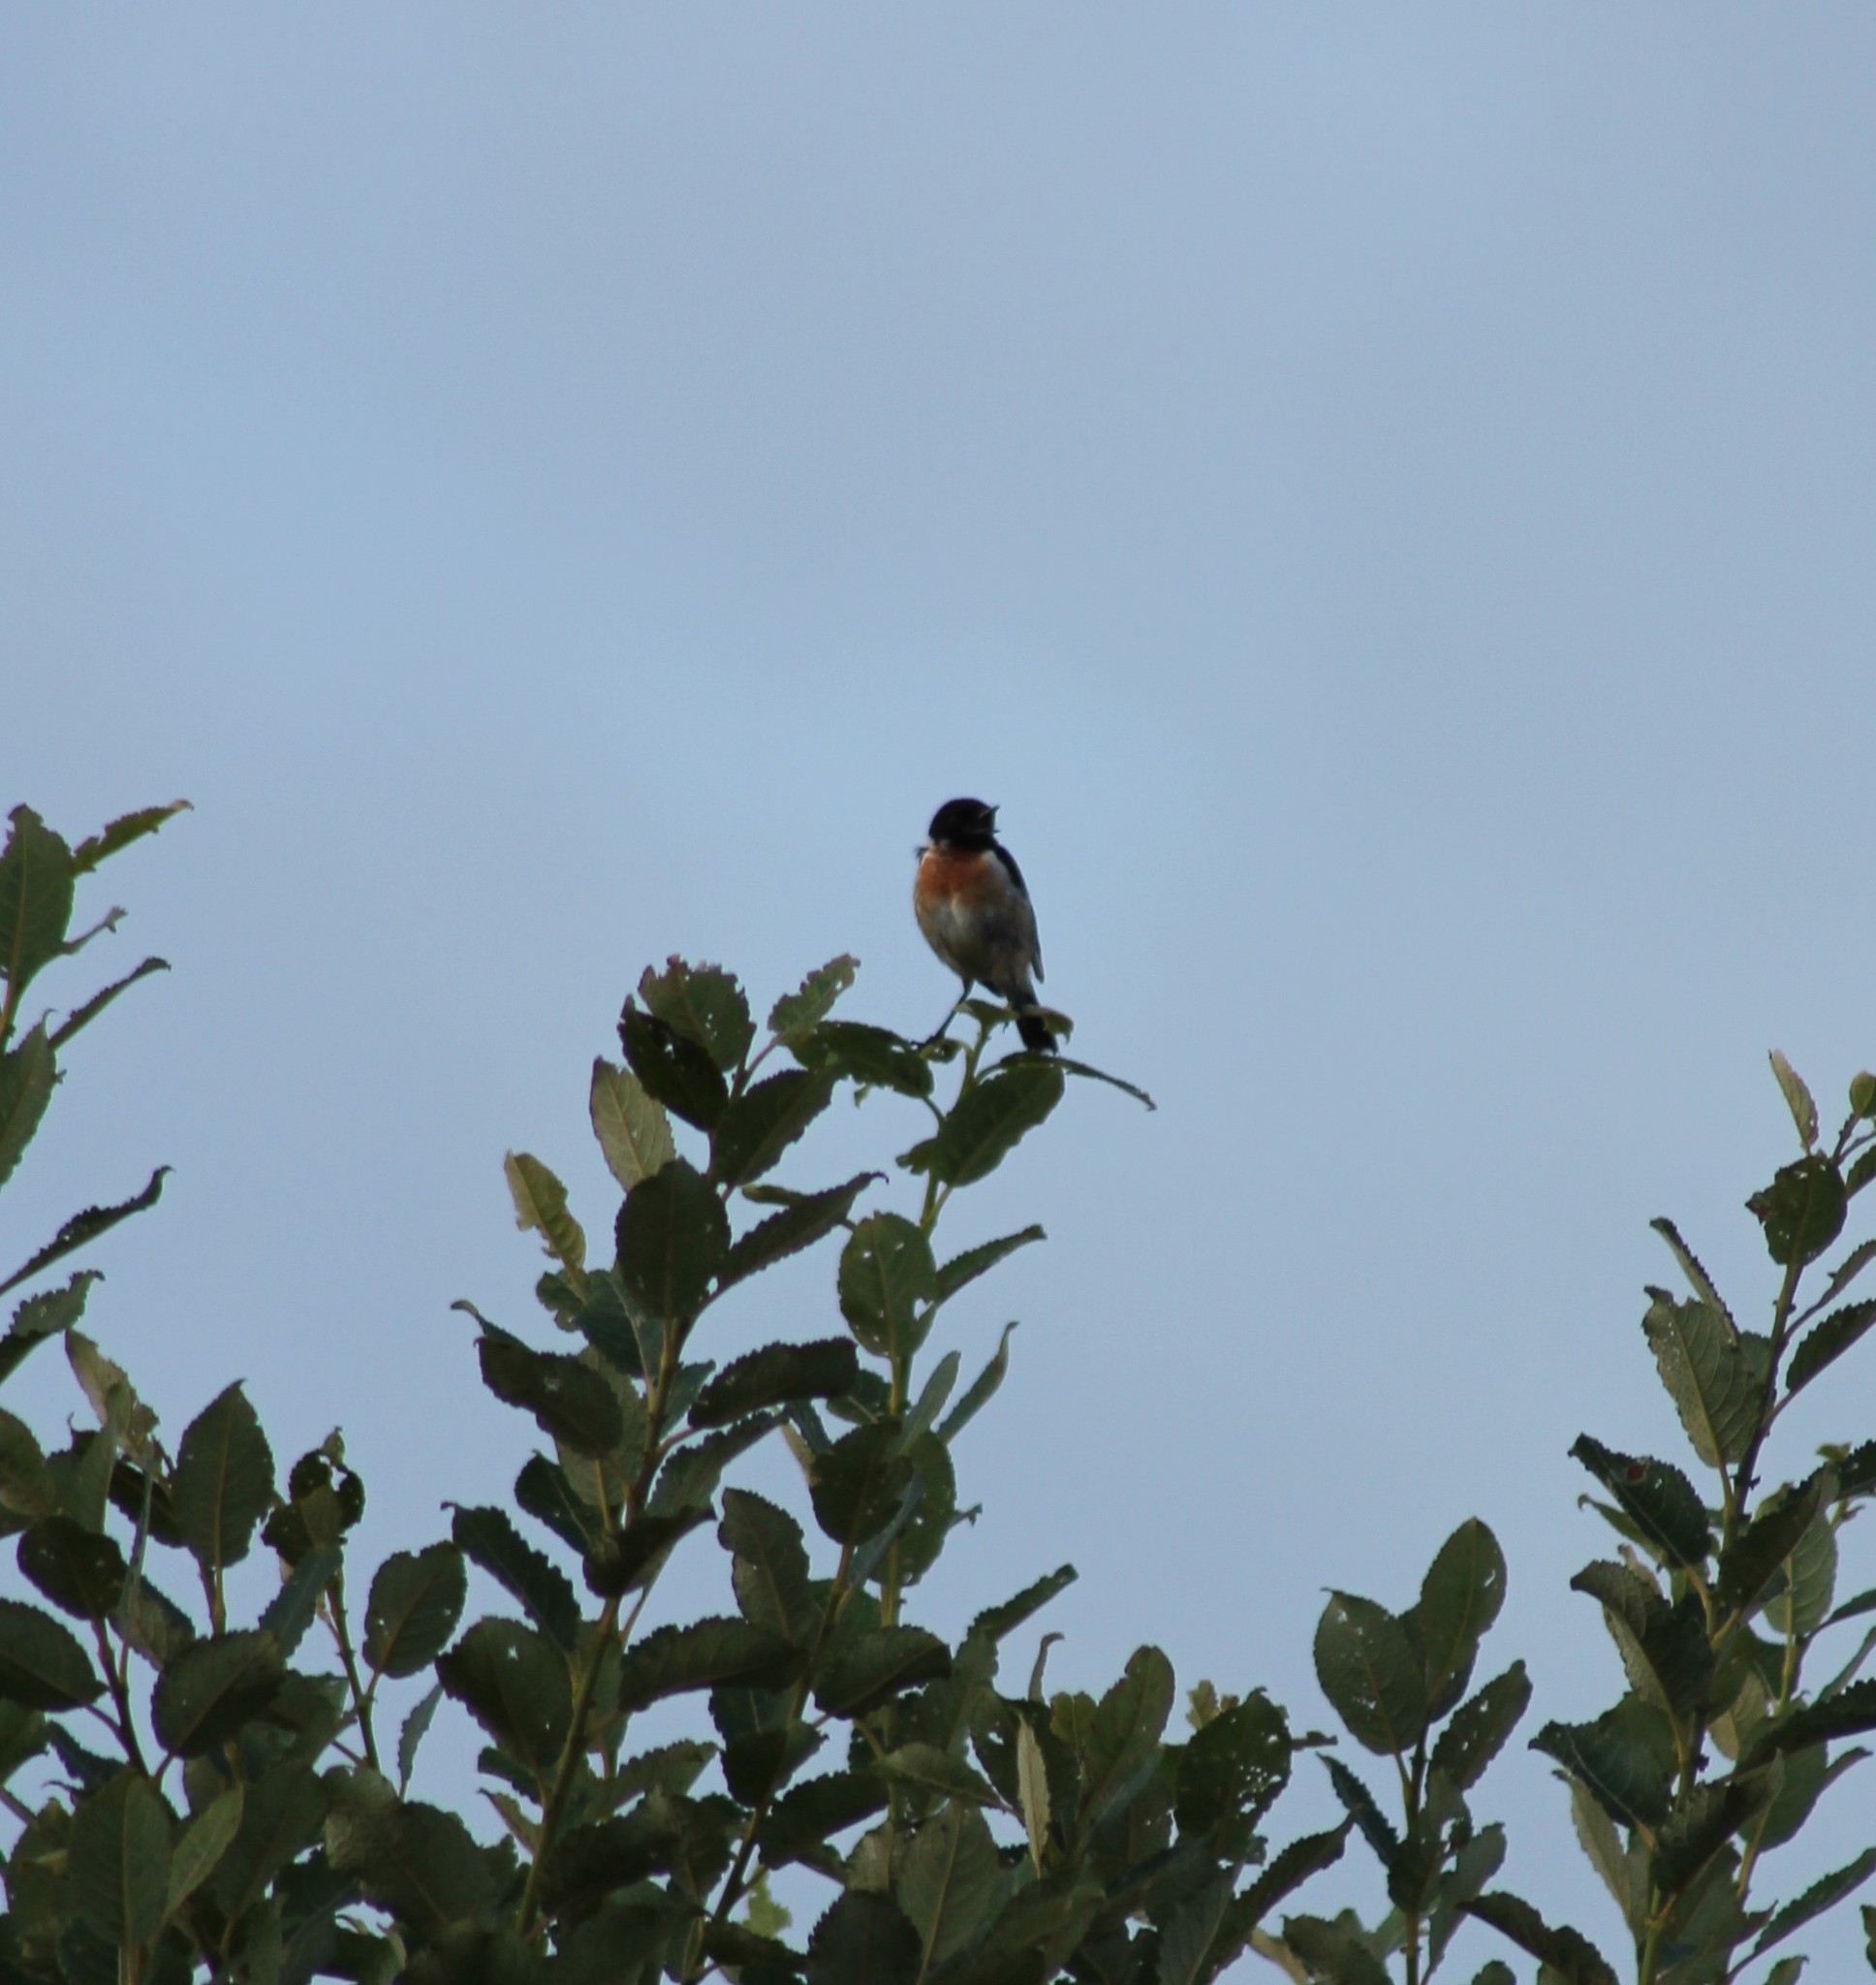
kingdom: Animalia
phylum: Chordata
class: Aves
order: Passeriformes
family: Muscicapidae
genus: Saxicola
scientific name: Saxicola rubicola
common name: European stonechat
